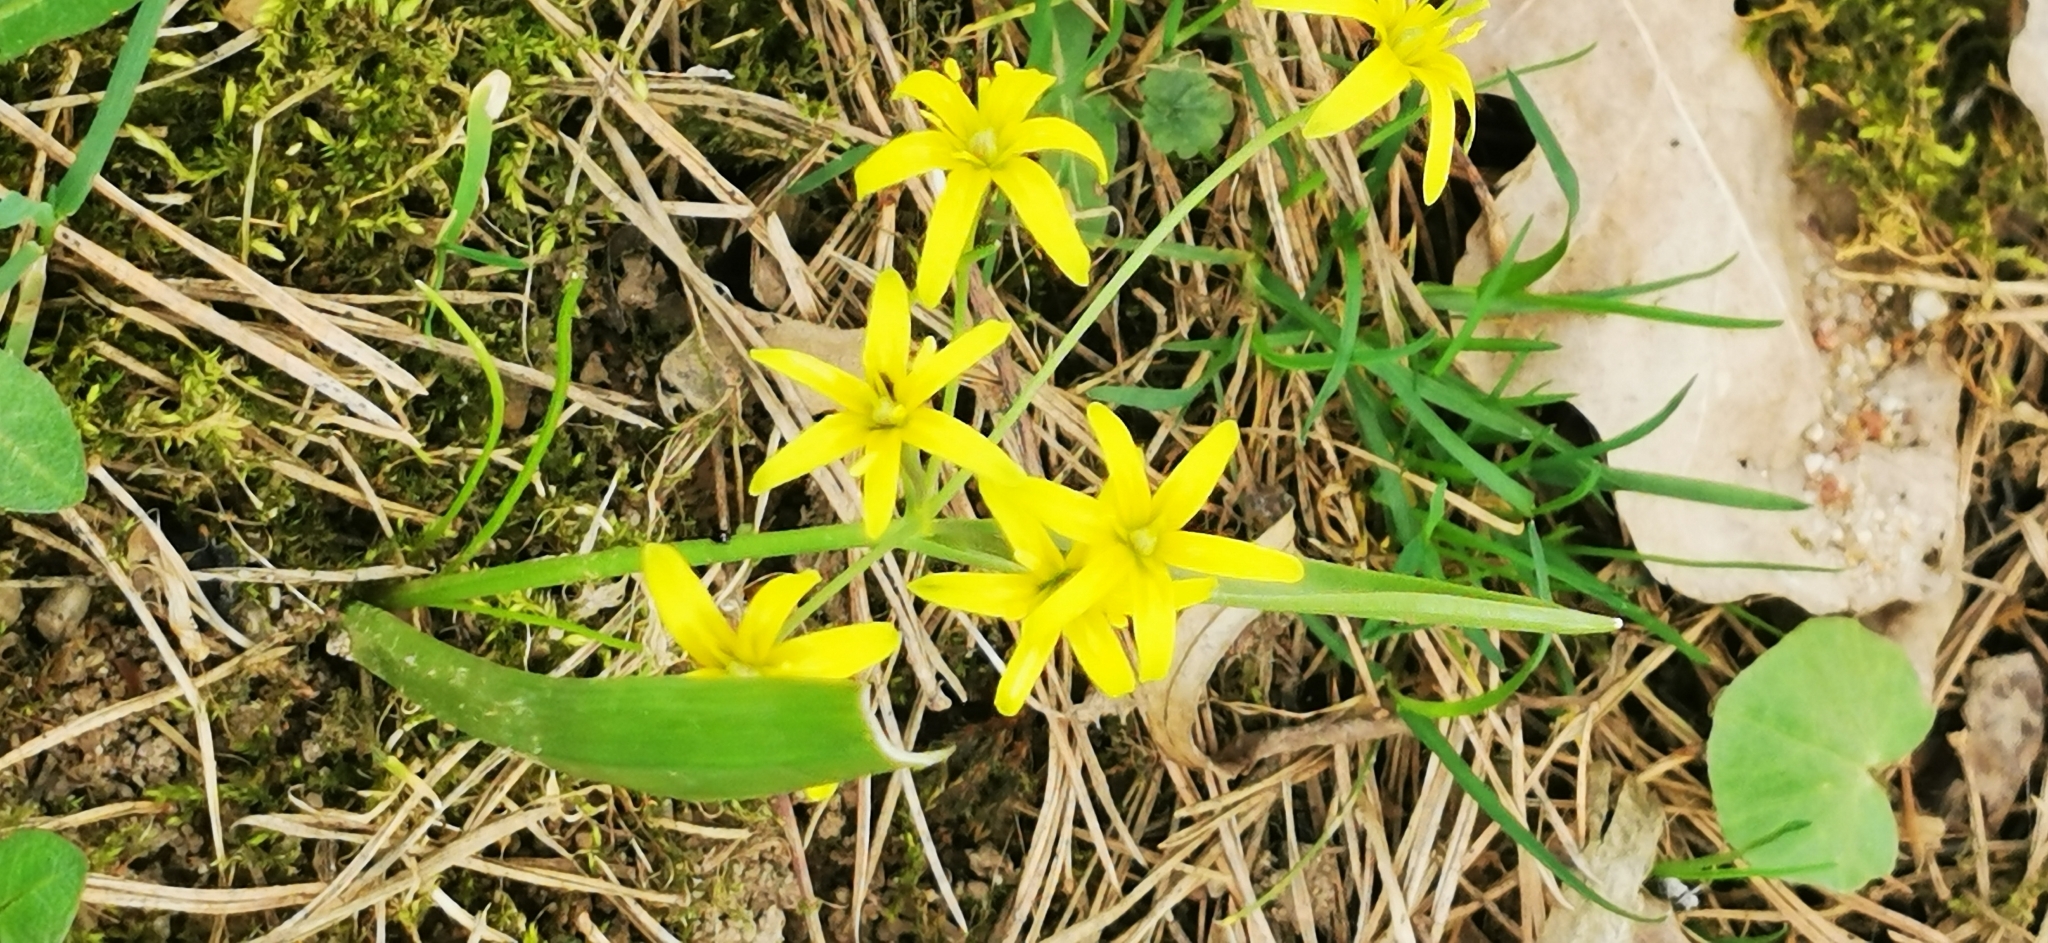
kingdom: Plantae
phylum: Tracheophyta
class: Liliopsida
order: Liliales
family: Liliaceae
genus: Gagea
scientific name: Gagea lutea
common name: Yellow star-of-bethlehem
